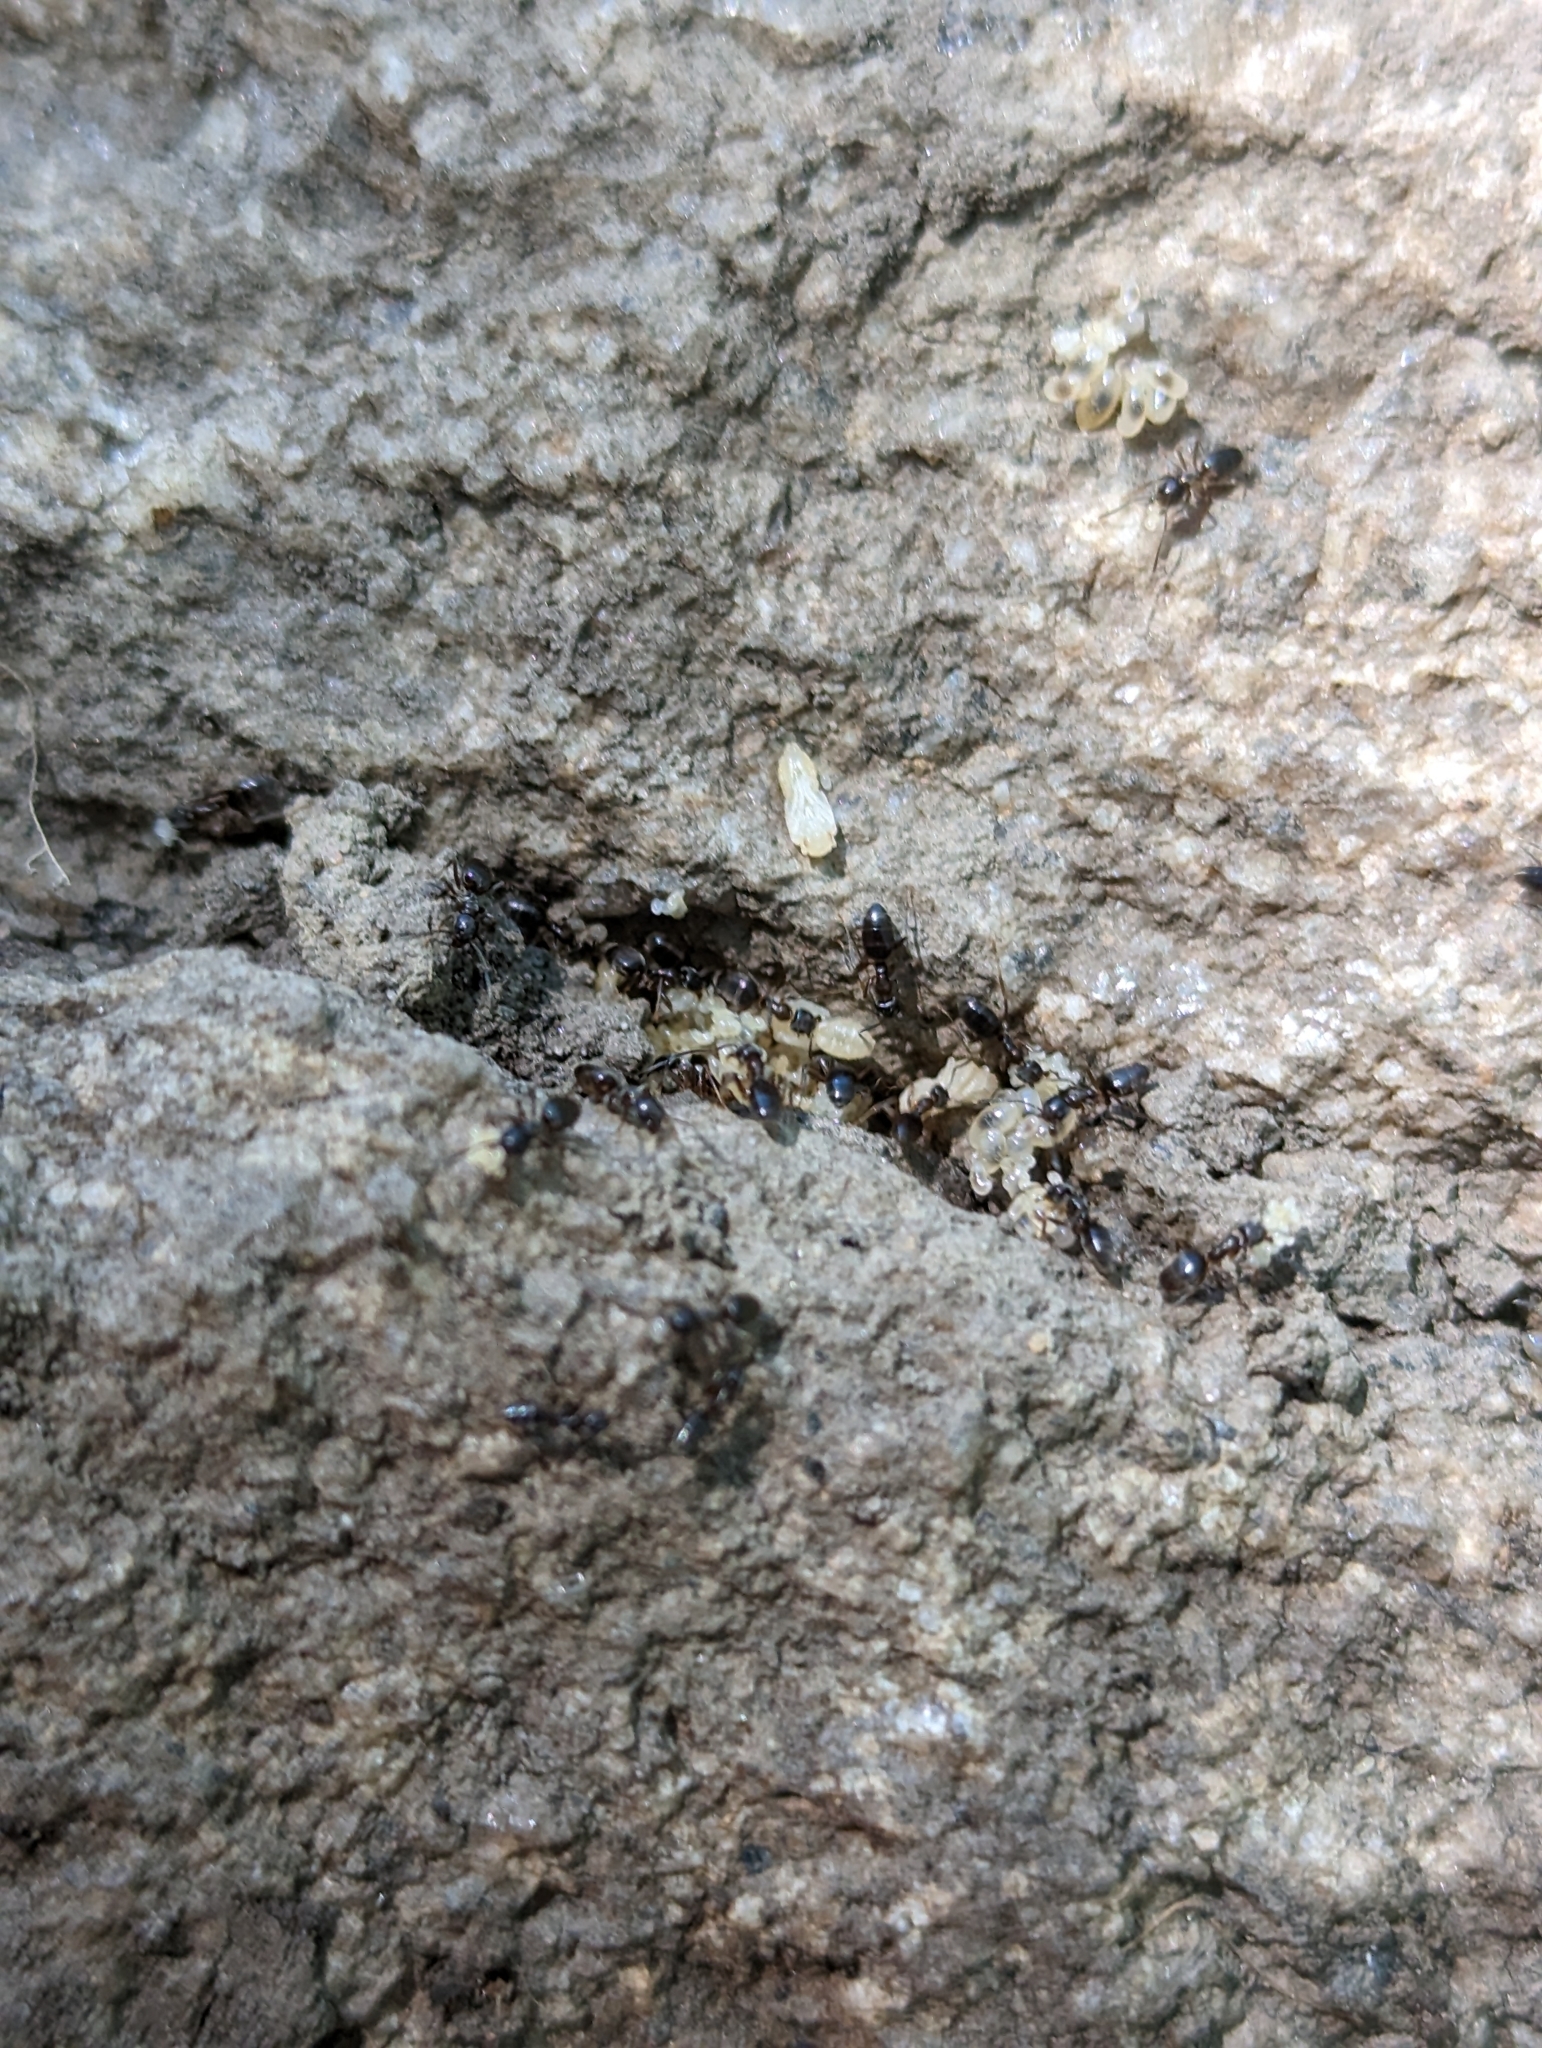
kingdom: Animalia
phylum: Arthropoda
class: Insecta
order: Hymenoptera
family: Formicidae
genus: Tapinoma
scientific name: Tapinoma sessile
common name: Odorous house ant
